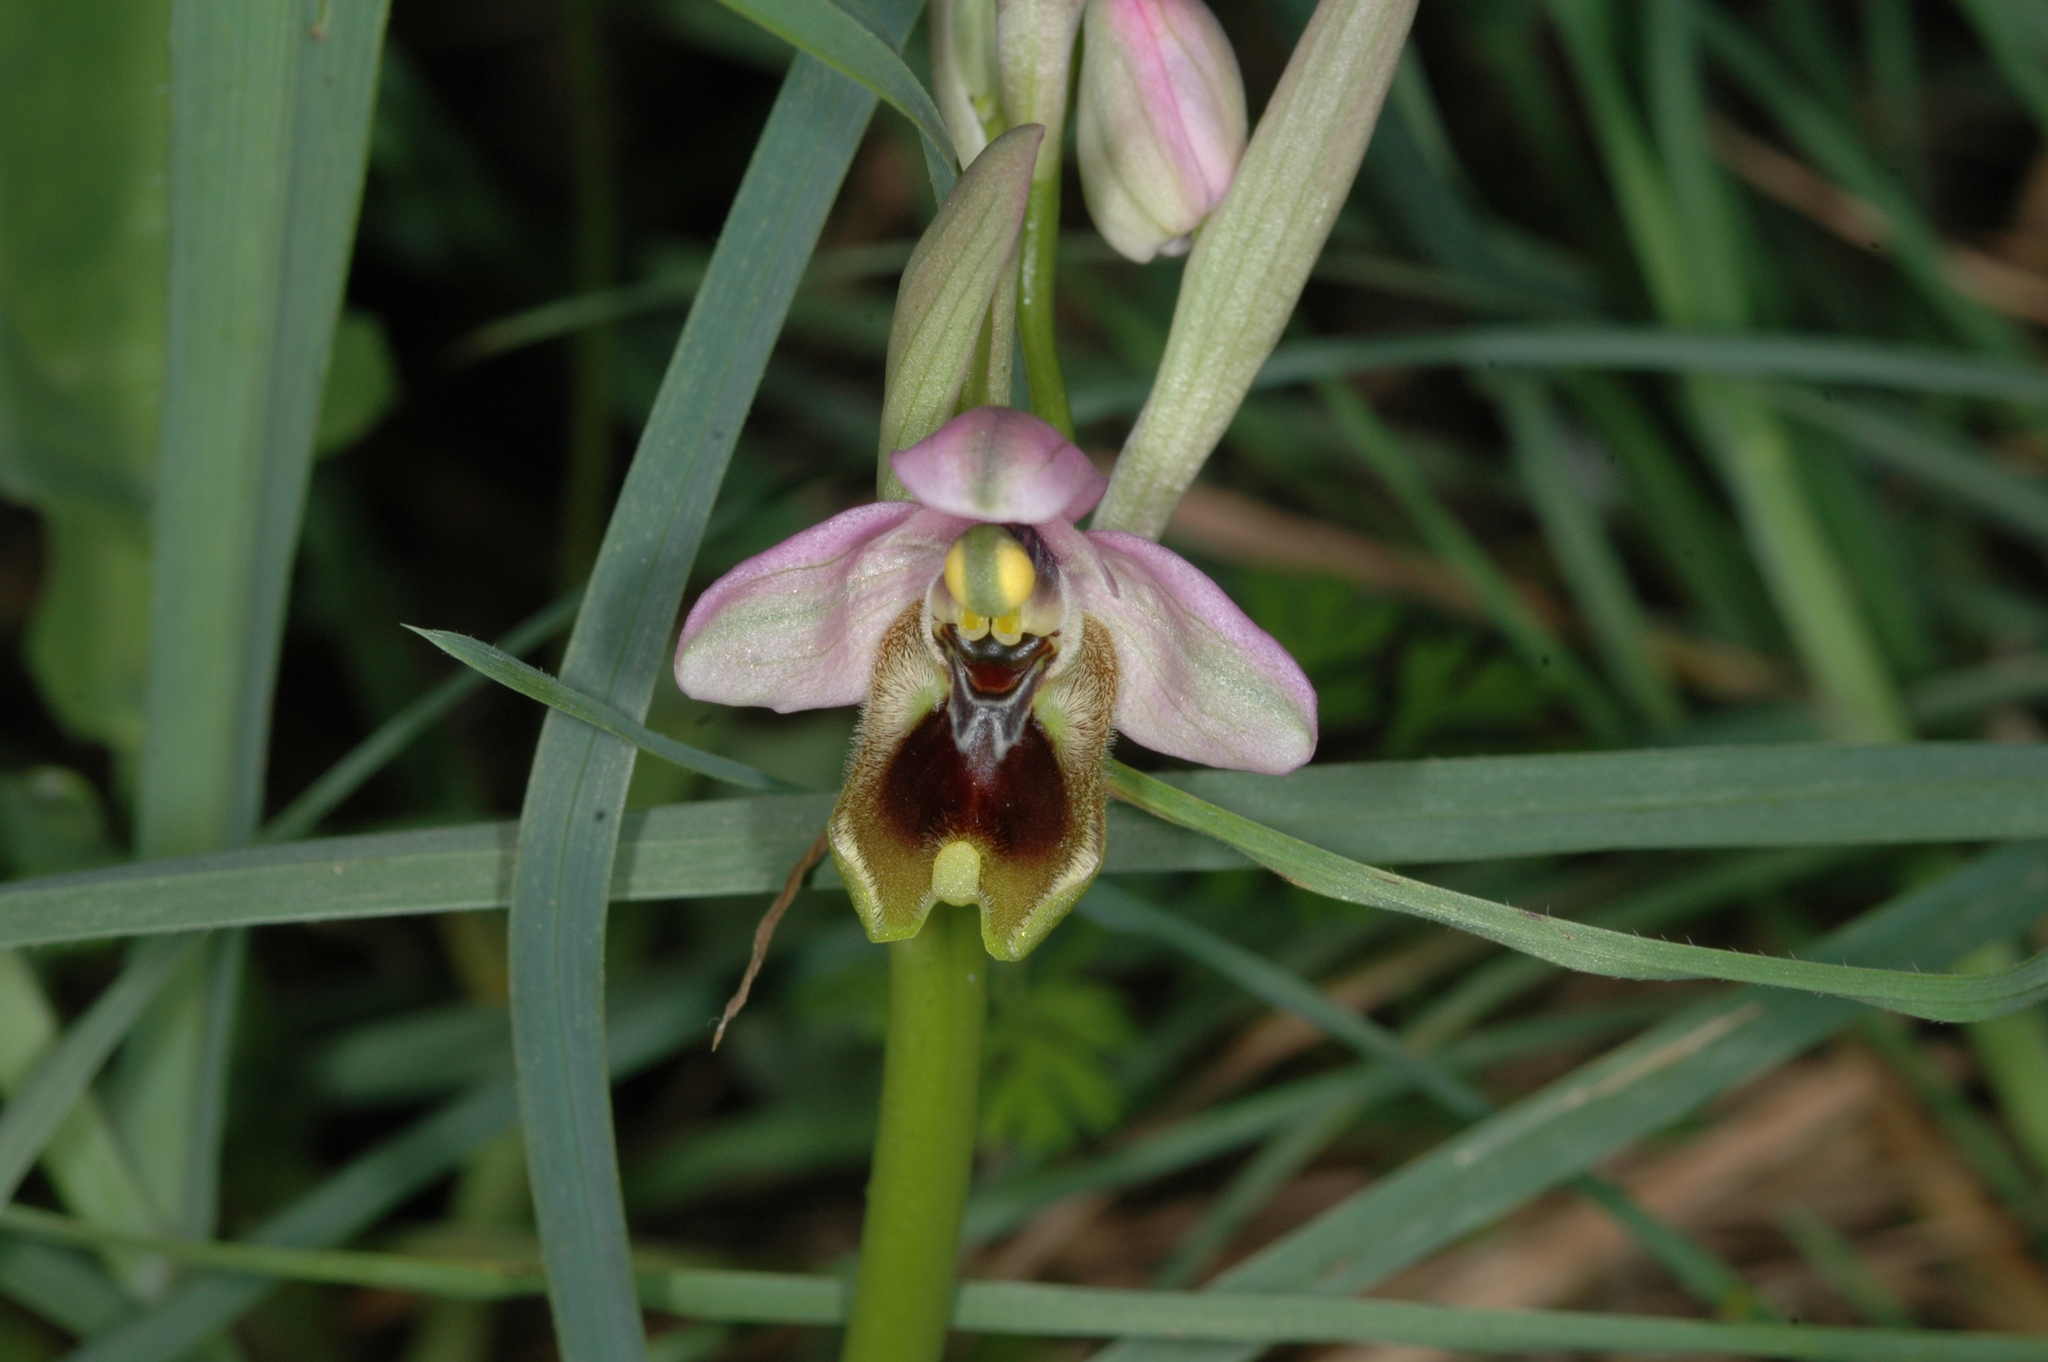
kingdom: Plantae
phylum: Tracheophyta
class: Liliopsida
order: Asparagales
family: Orchidaceae
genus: Ophrys
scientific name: Ophrys tenthredinifera
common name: Sawfly orchid
